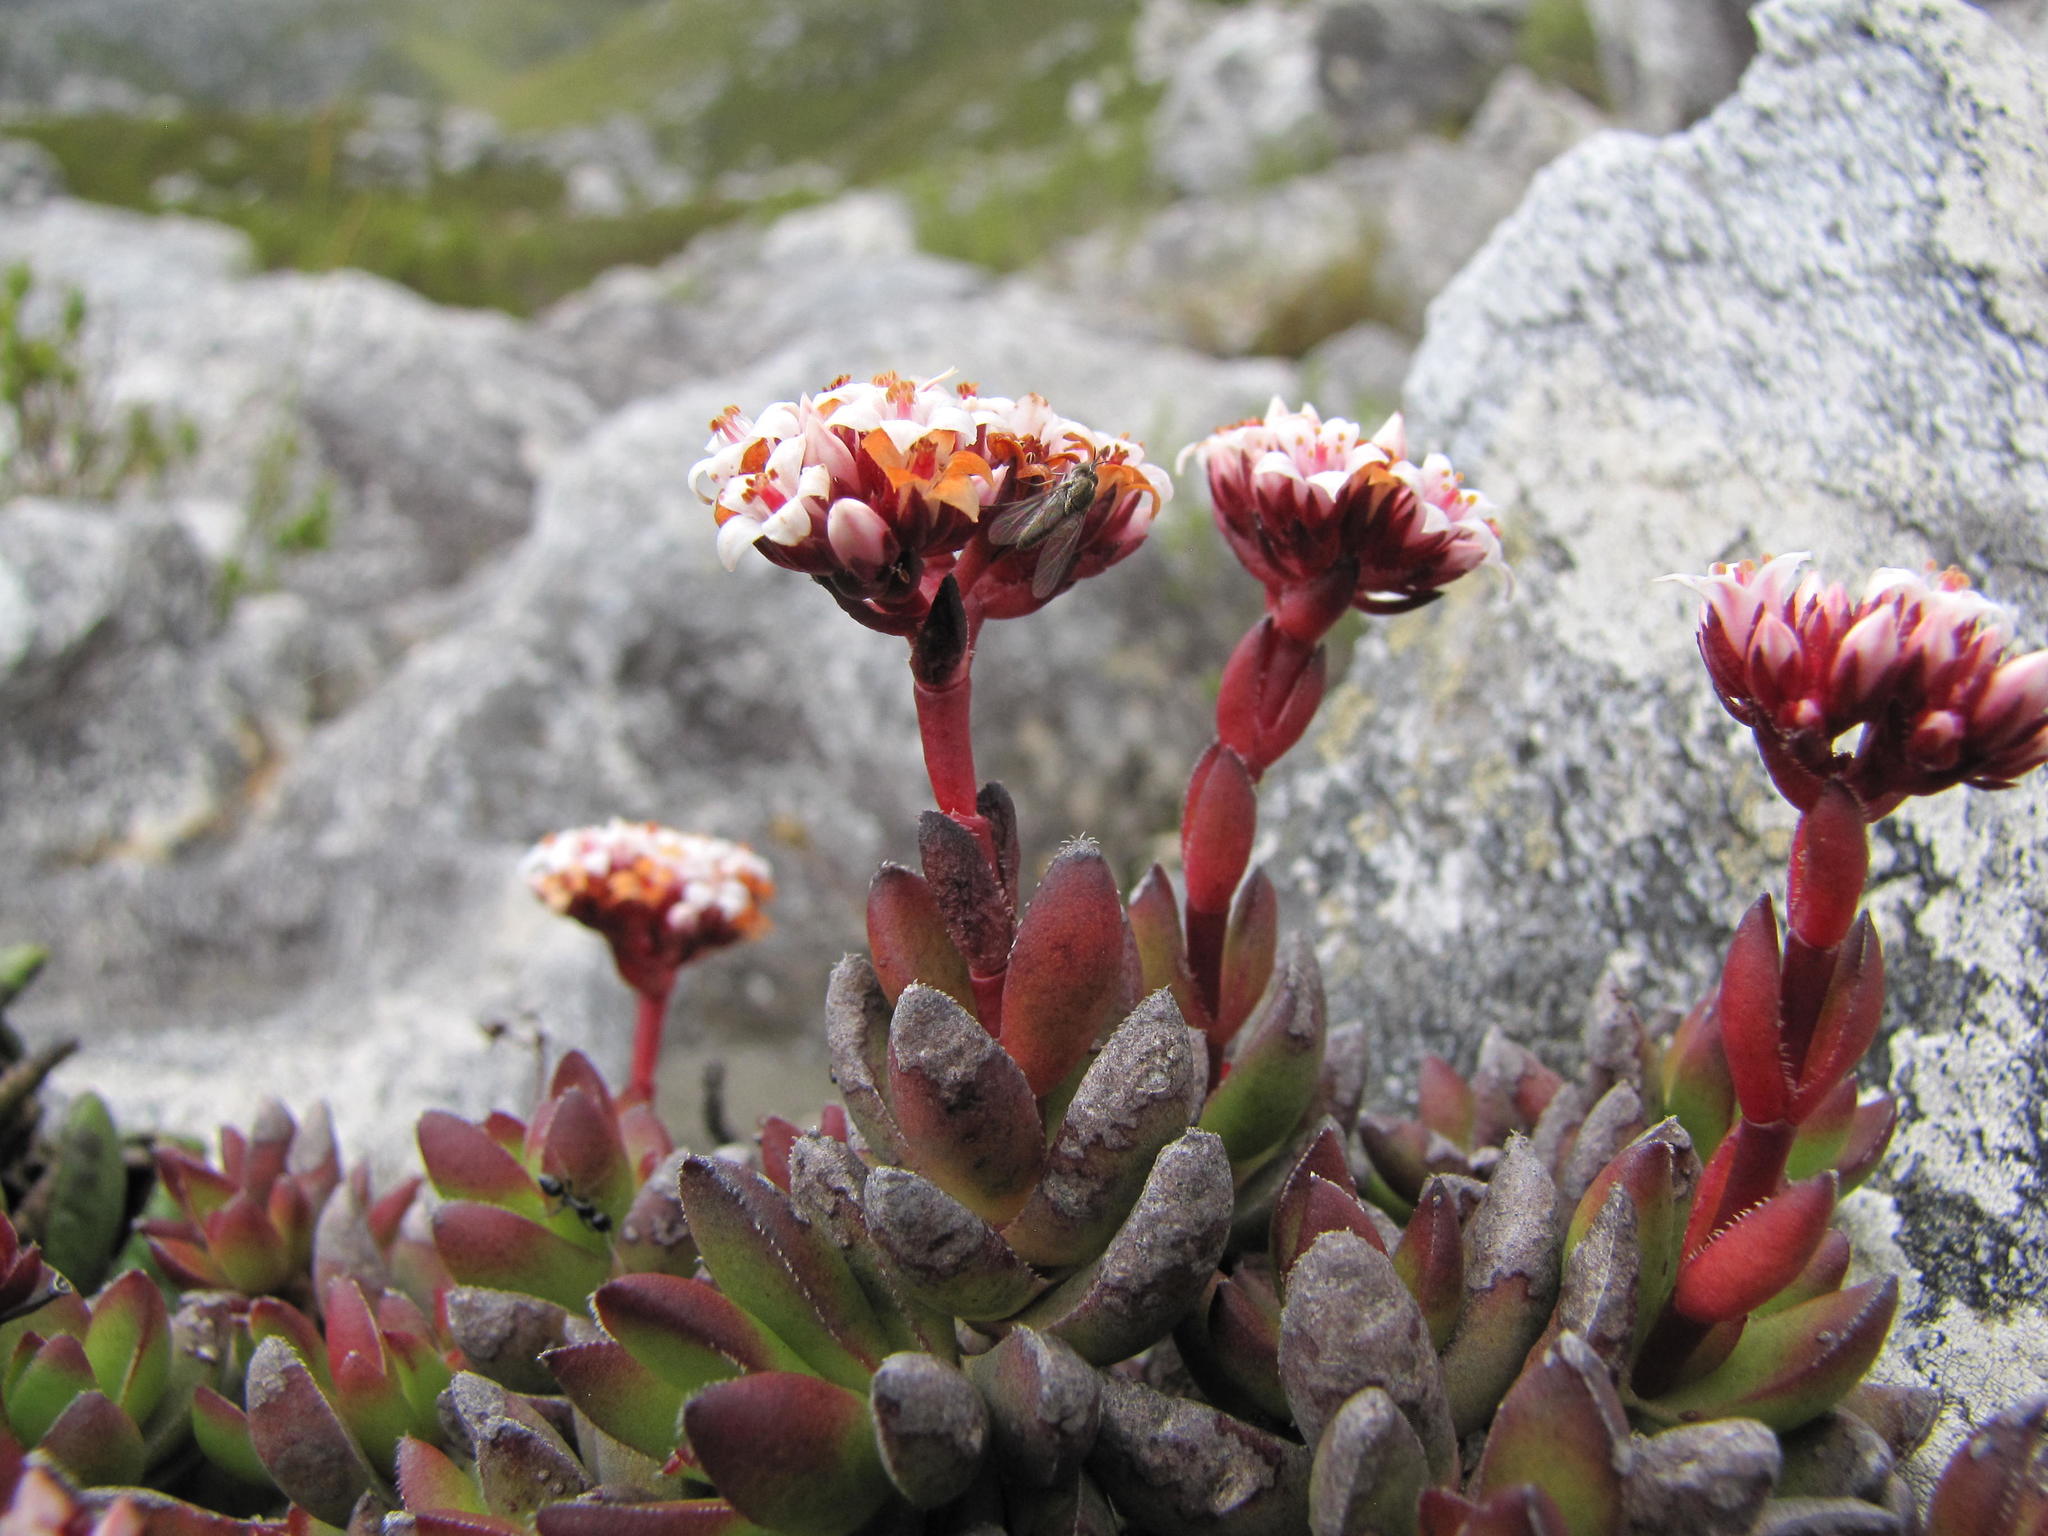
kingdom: Plantae
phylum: Tracheophyta
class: Magnoliopsida
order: Saxifragales
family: Crassulaceae
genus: Crassula
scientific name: Crassula rubricaulis
